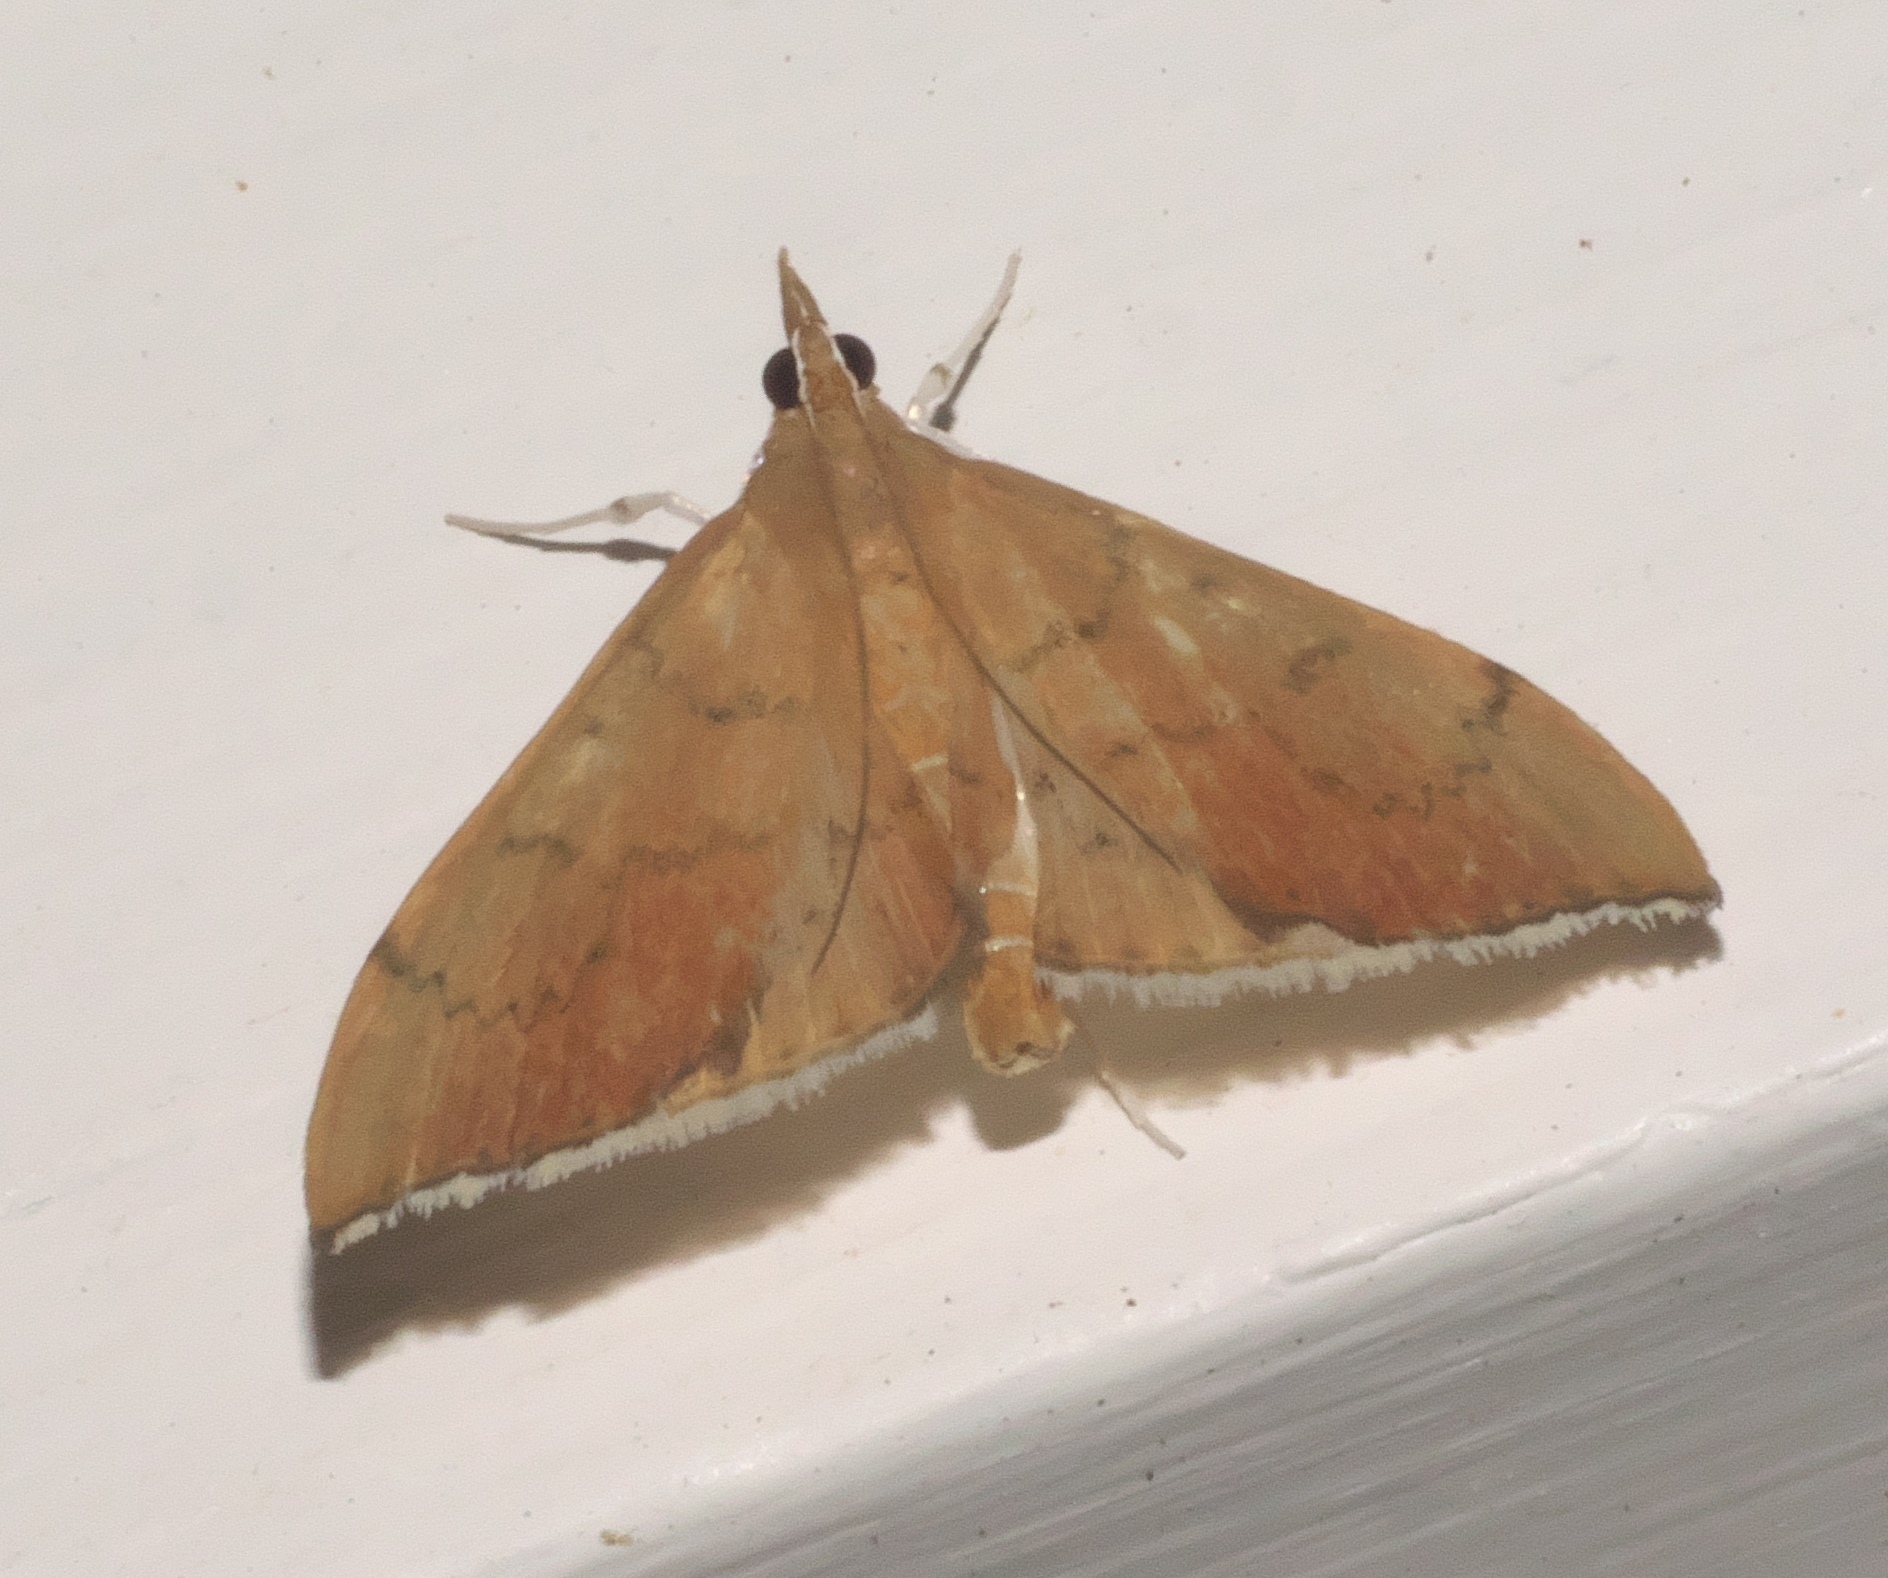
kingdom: Animalia
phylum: Arthropoda
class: Insecta
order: Lepidoptera
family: Crambidae
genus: Sericoplaga
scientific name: Sericoplaga externalis
